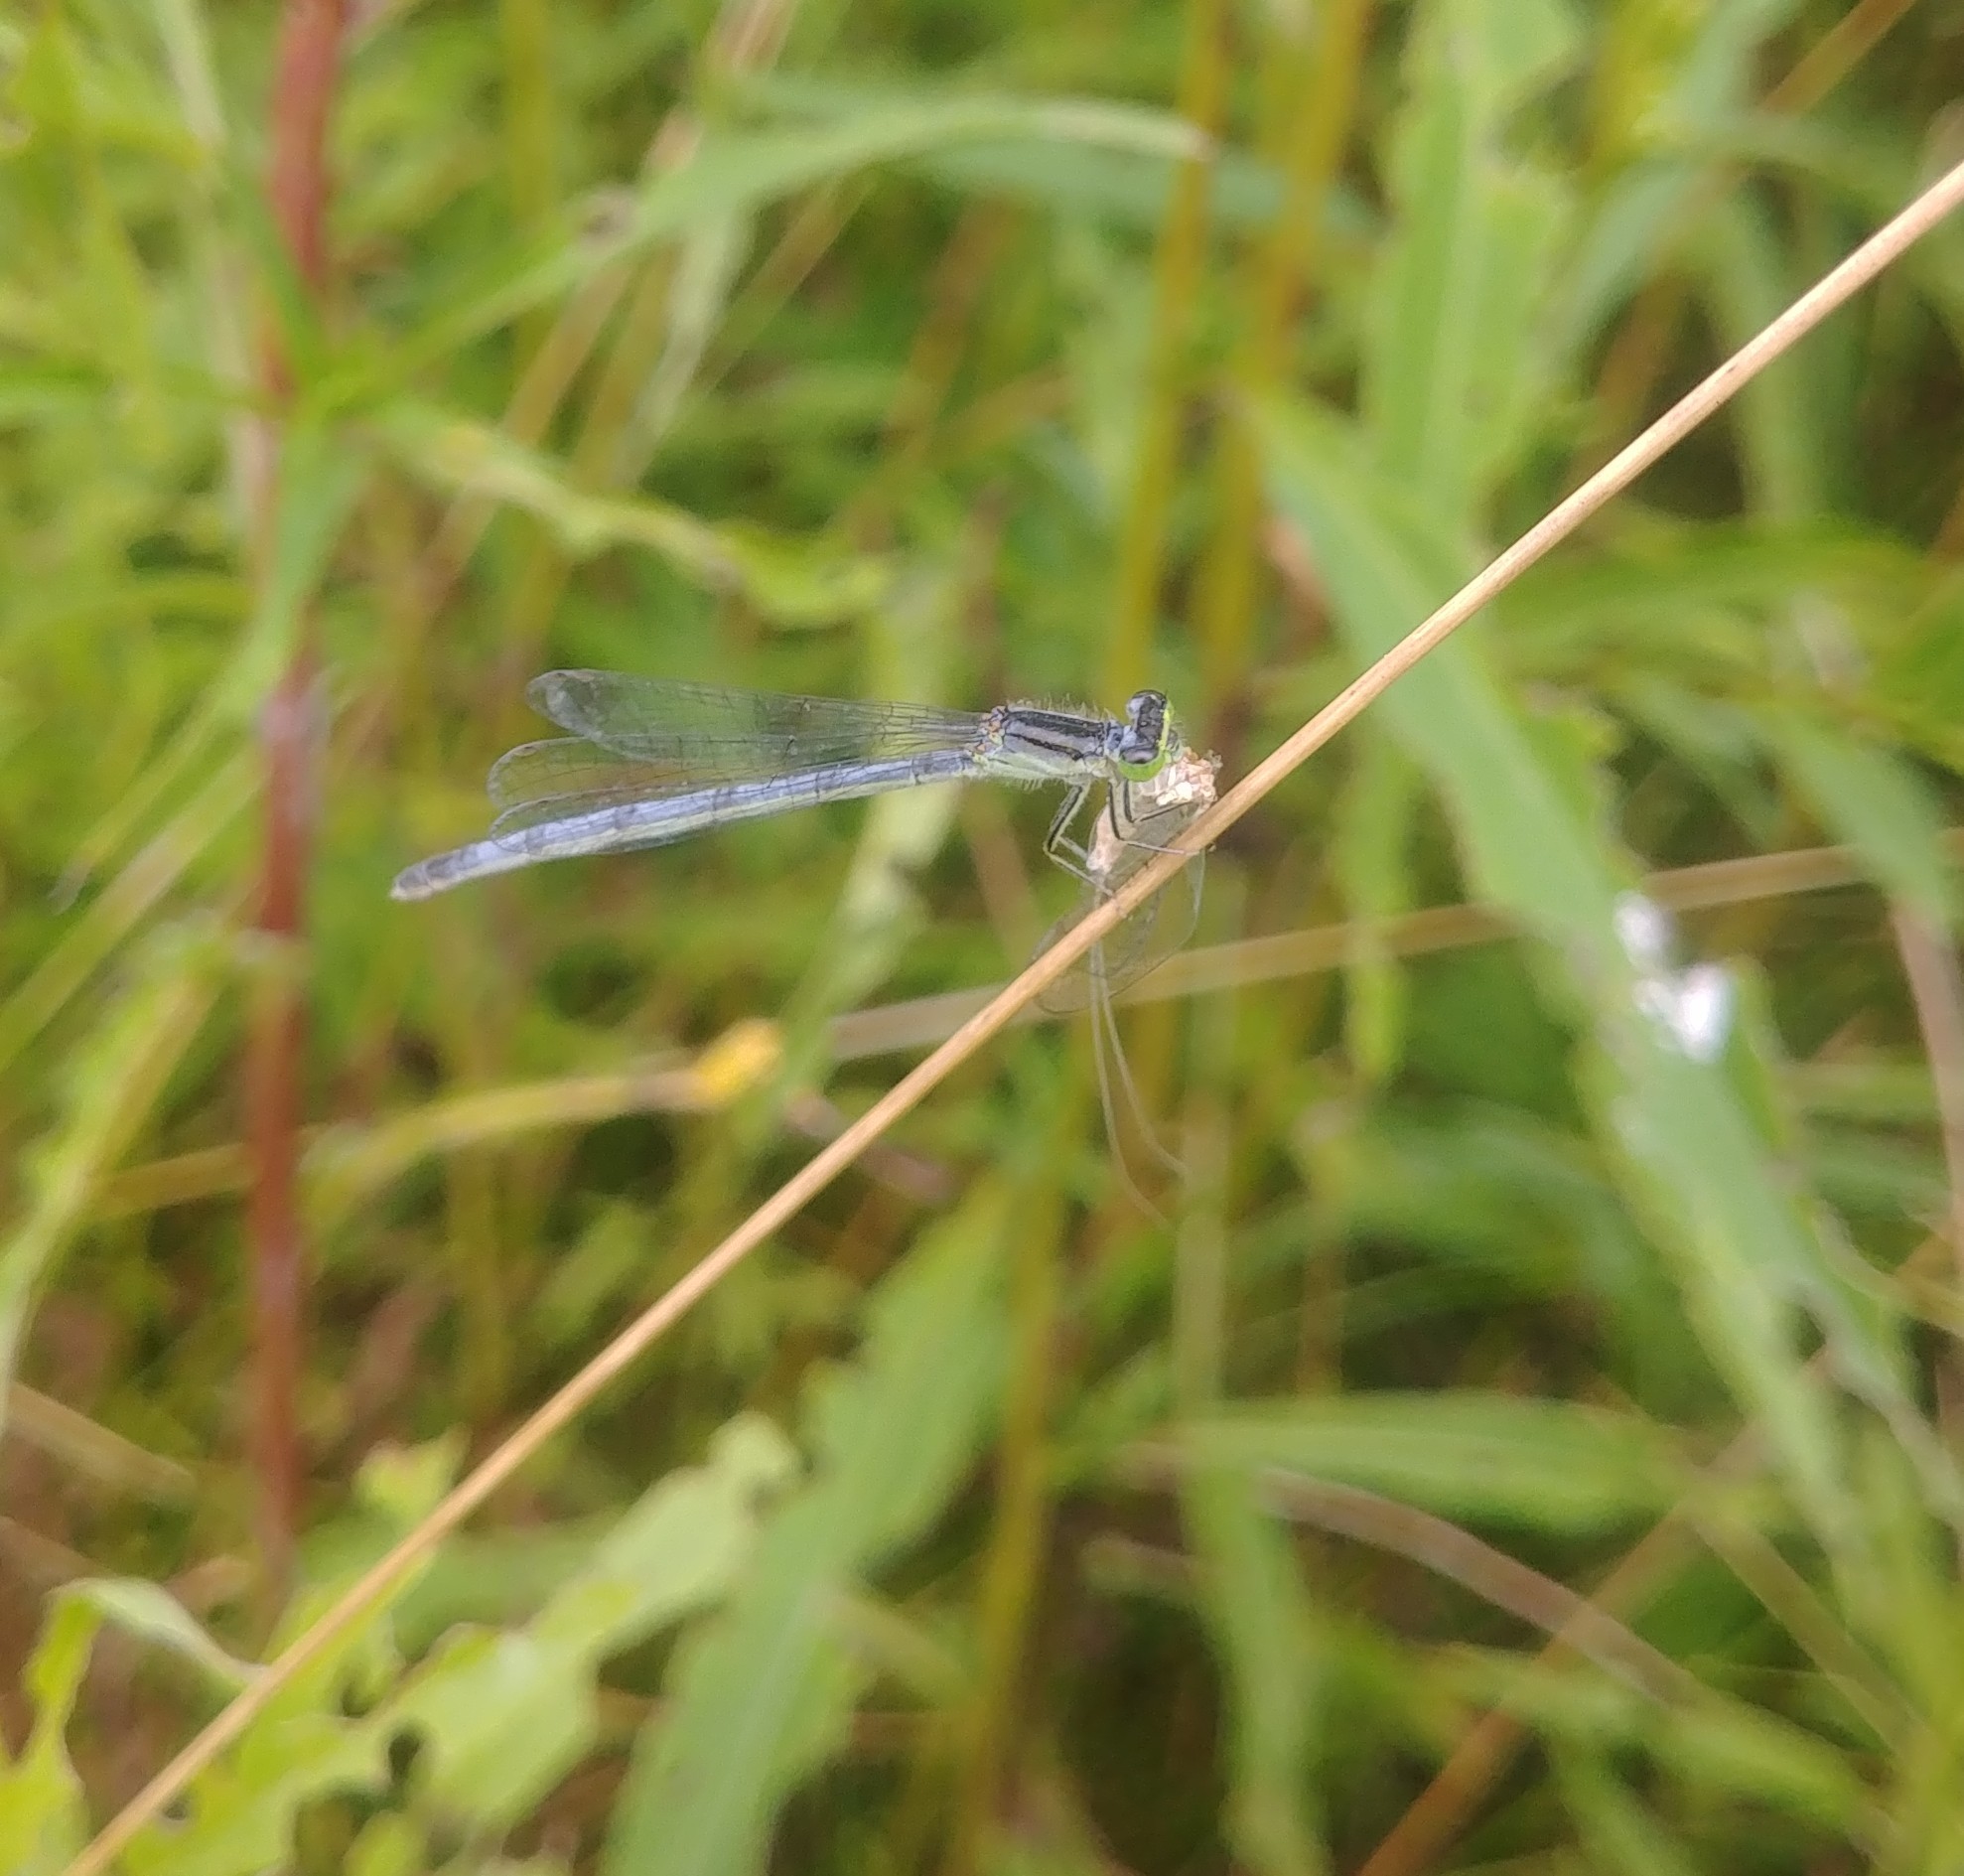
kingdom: Animalia
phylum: Arthropoda
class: Insecta
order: Odonata
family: Coenagrionidae
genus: Ischnura
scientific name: Ischnura verticalis
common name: Eastern forktail
